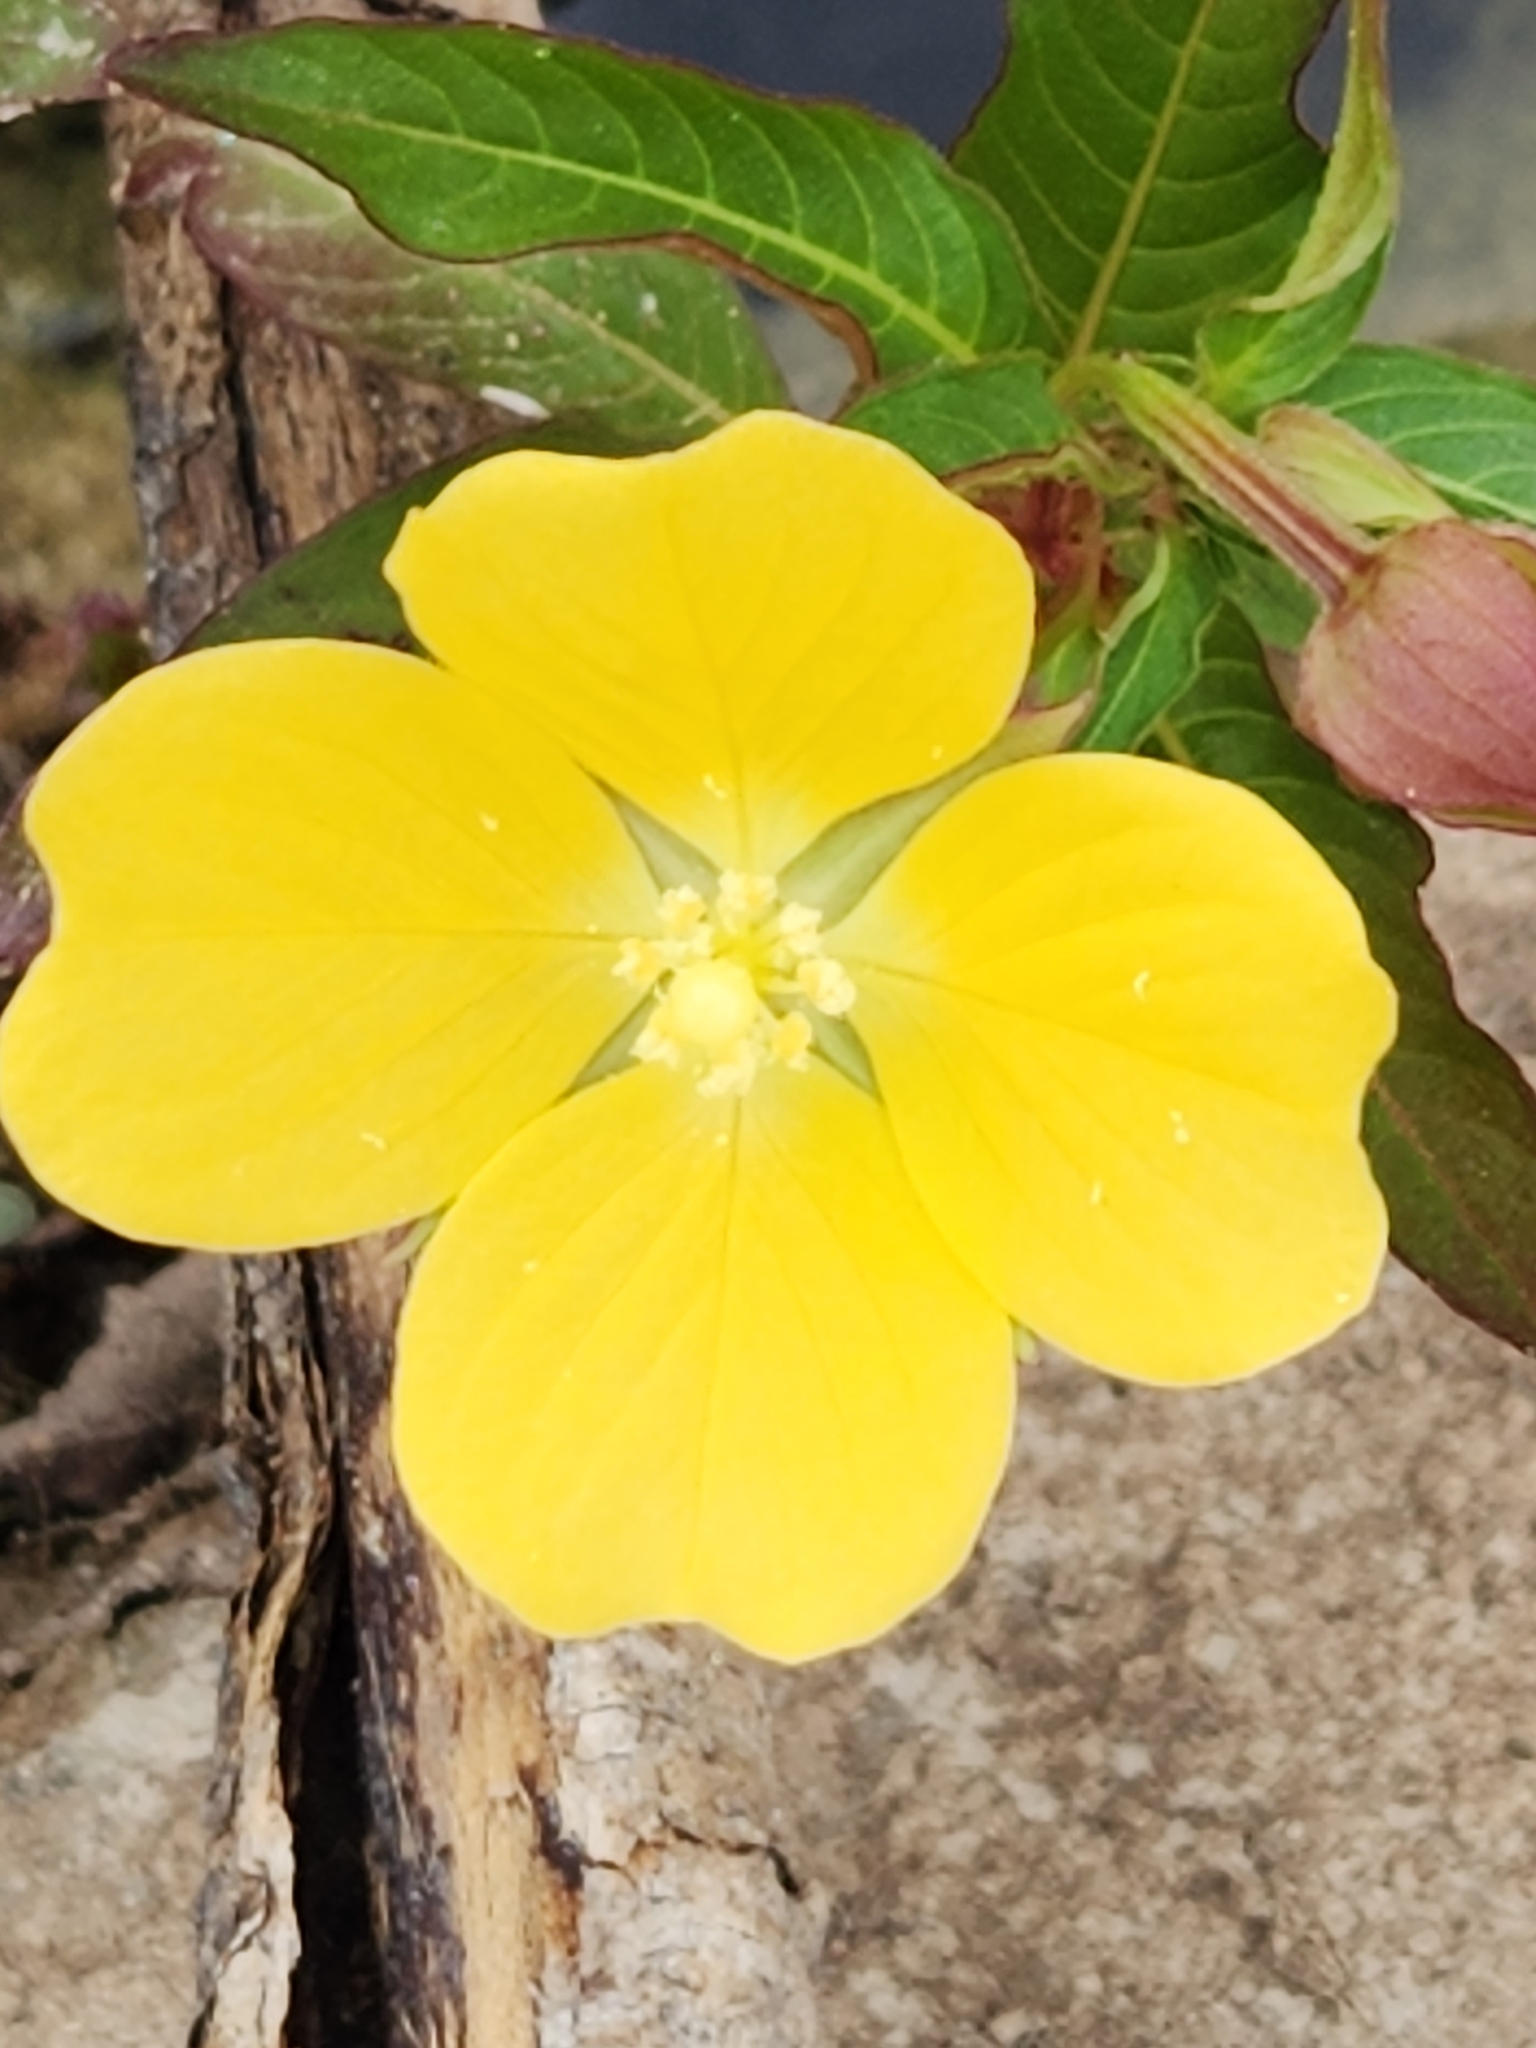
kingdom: Plantae
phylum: Tracheophyta
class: Magnoliopsida
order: Myrtales
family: Onagraceae
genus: Ludwigia
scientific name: Ludwigia octovalvis
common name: Water-primrose
